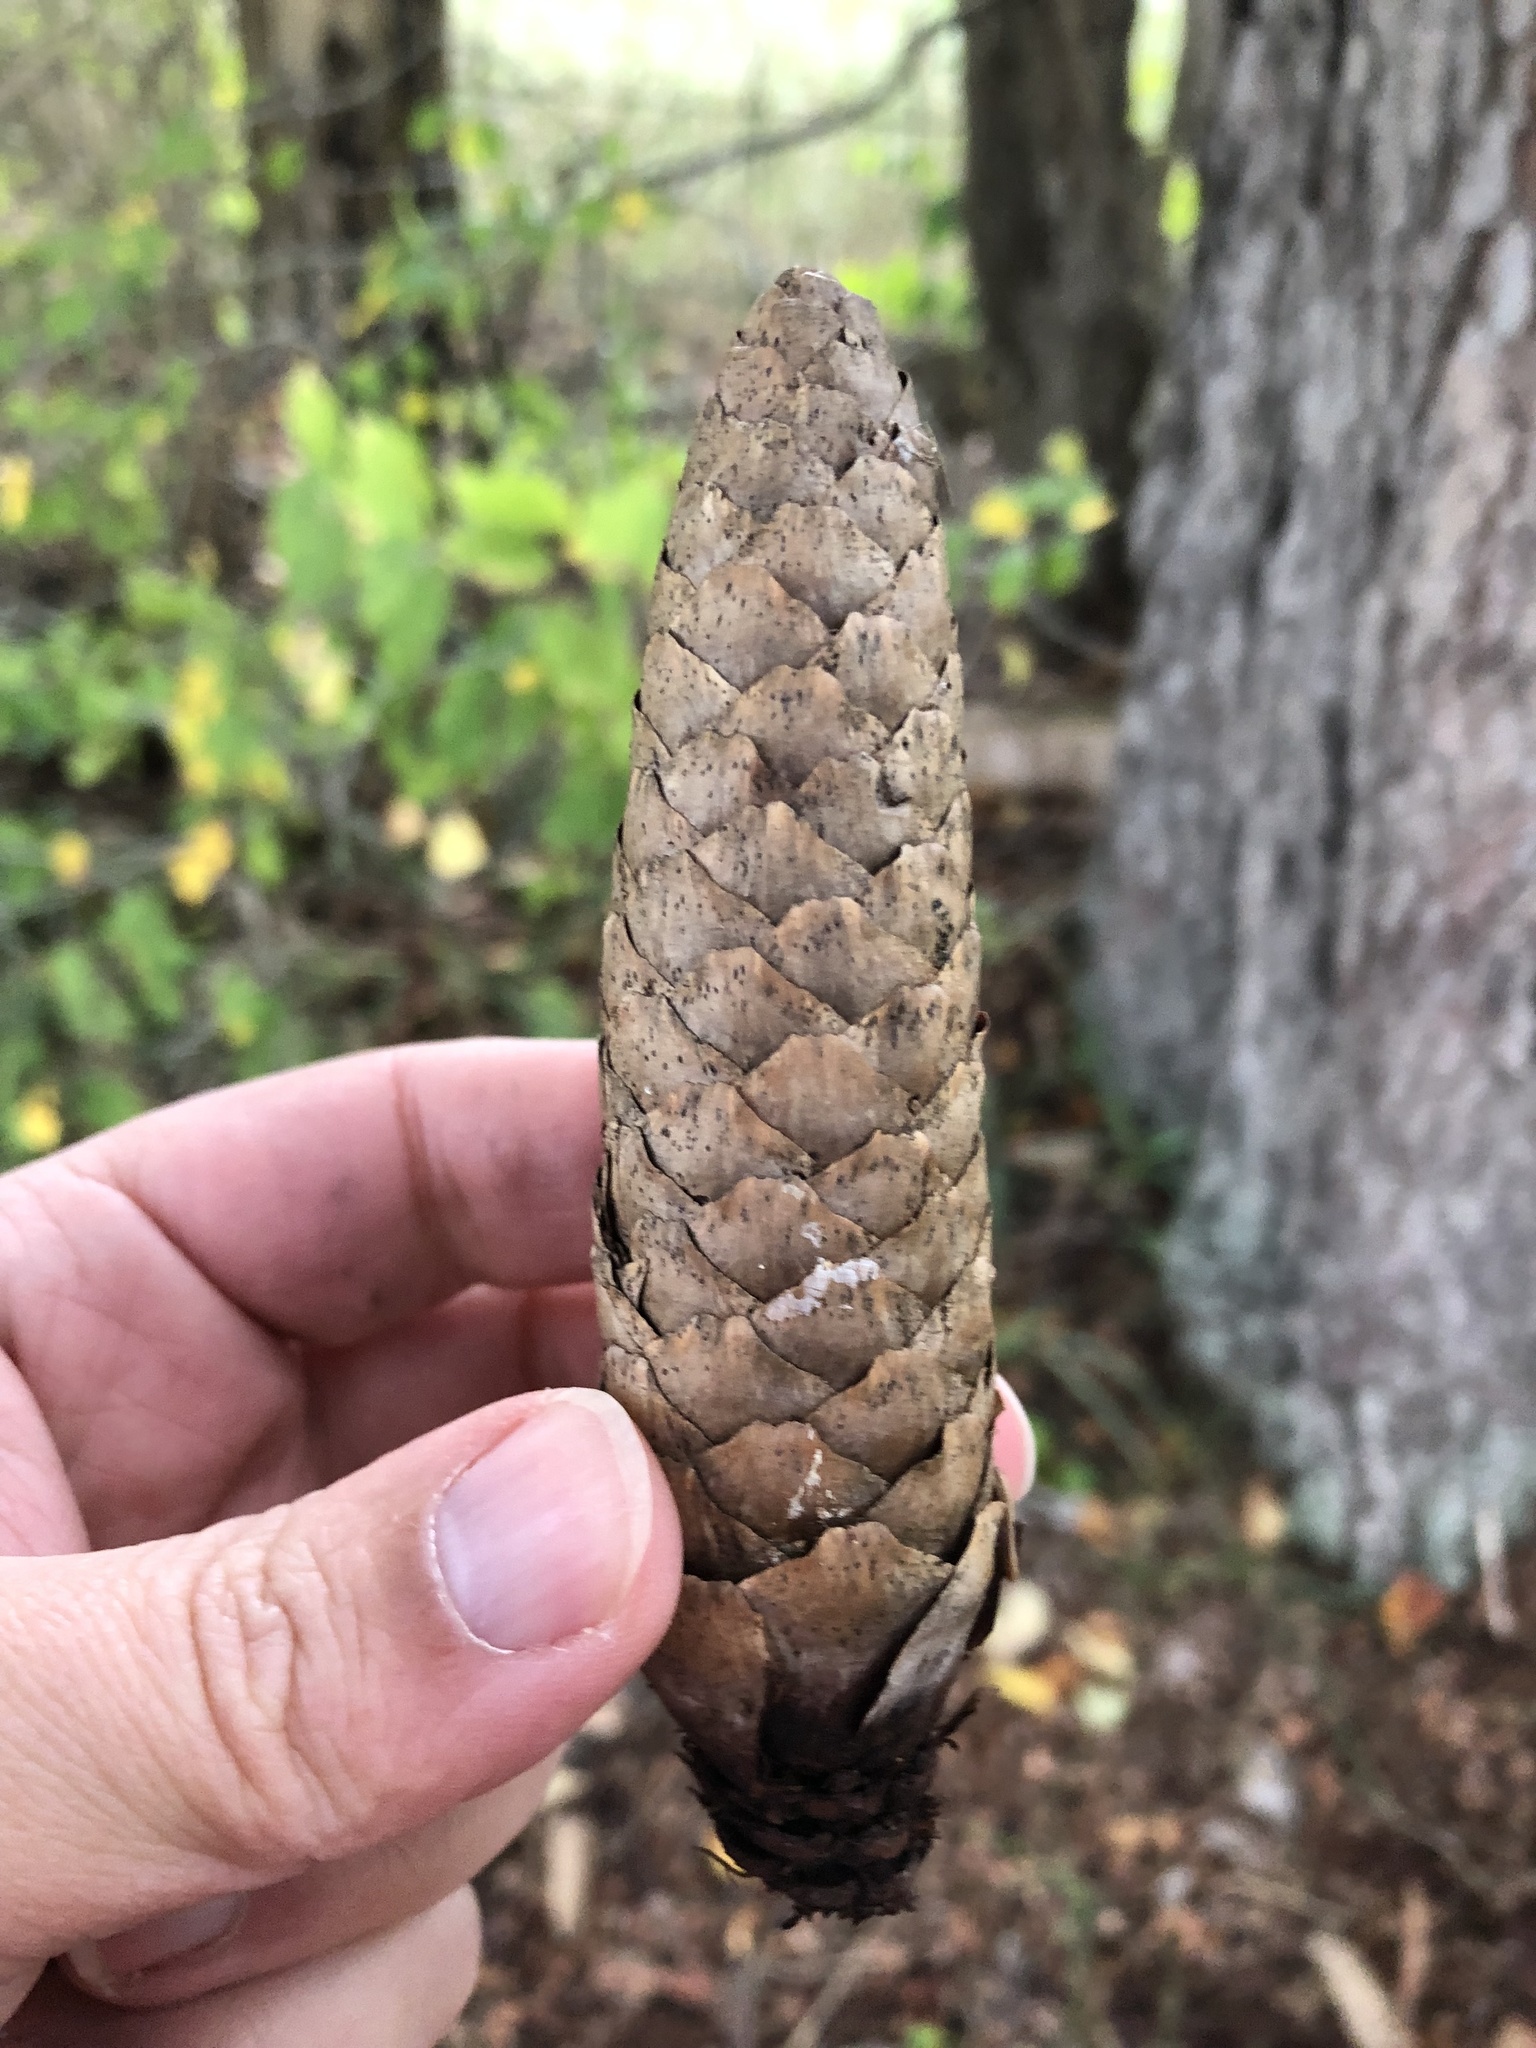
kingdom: Plantae
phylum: Tracheophyta
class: Pinopsida
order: Pinales
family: Pinaceae
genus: Picea
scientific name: Picea abies
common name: Norway spruce
